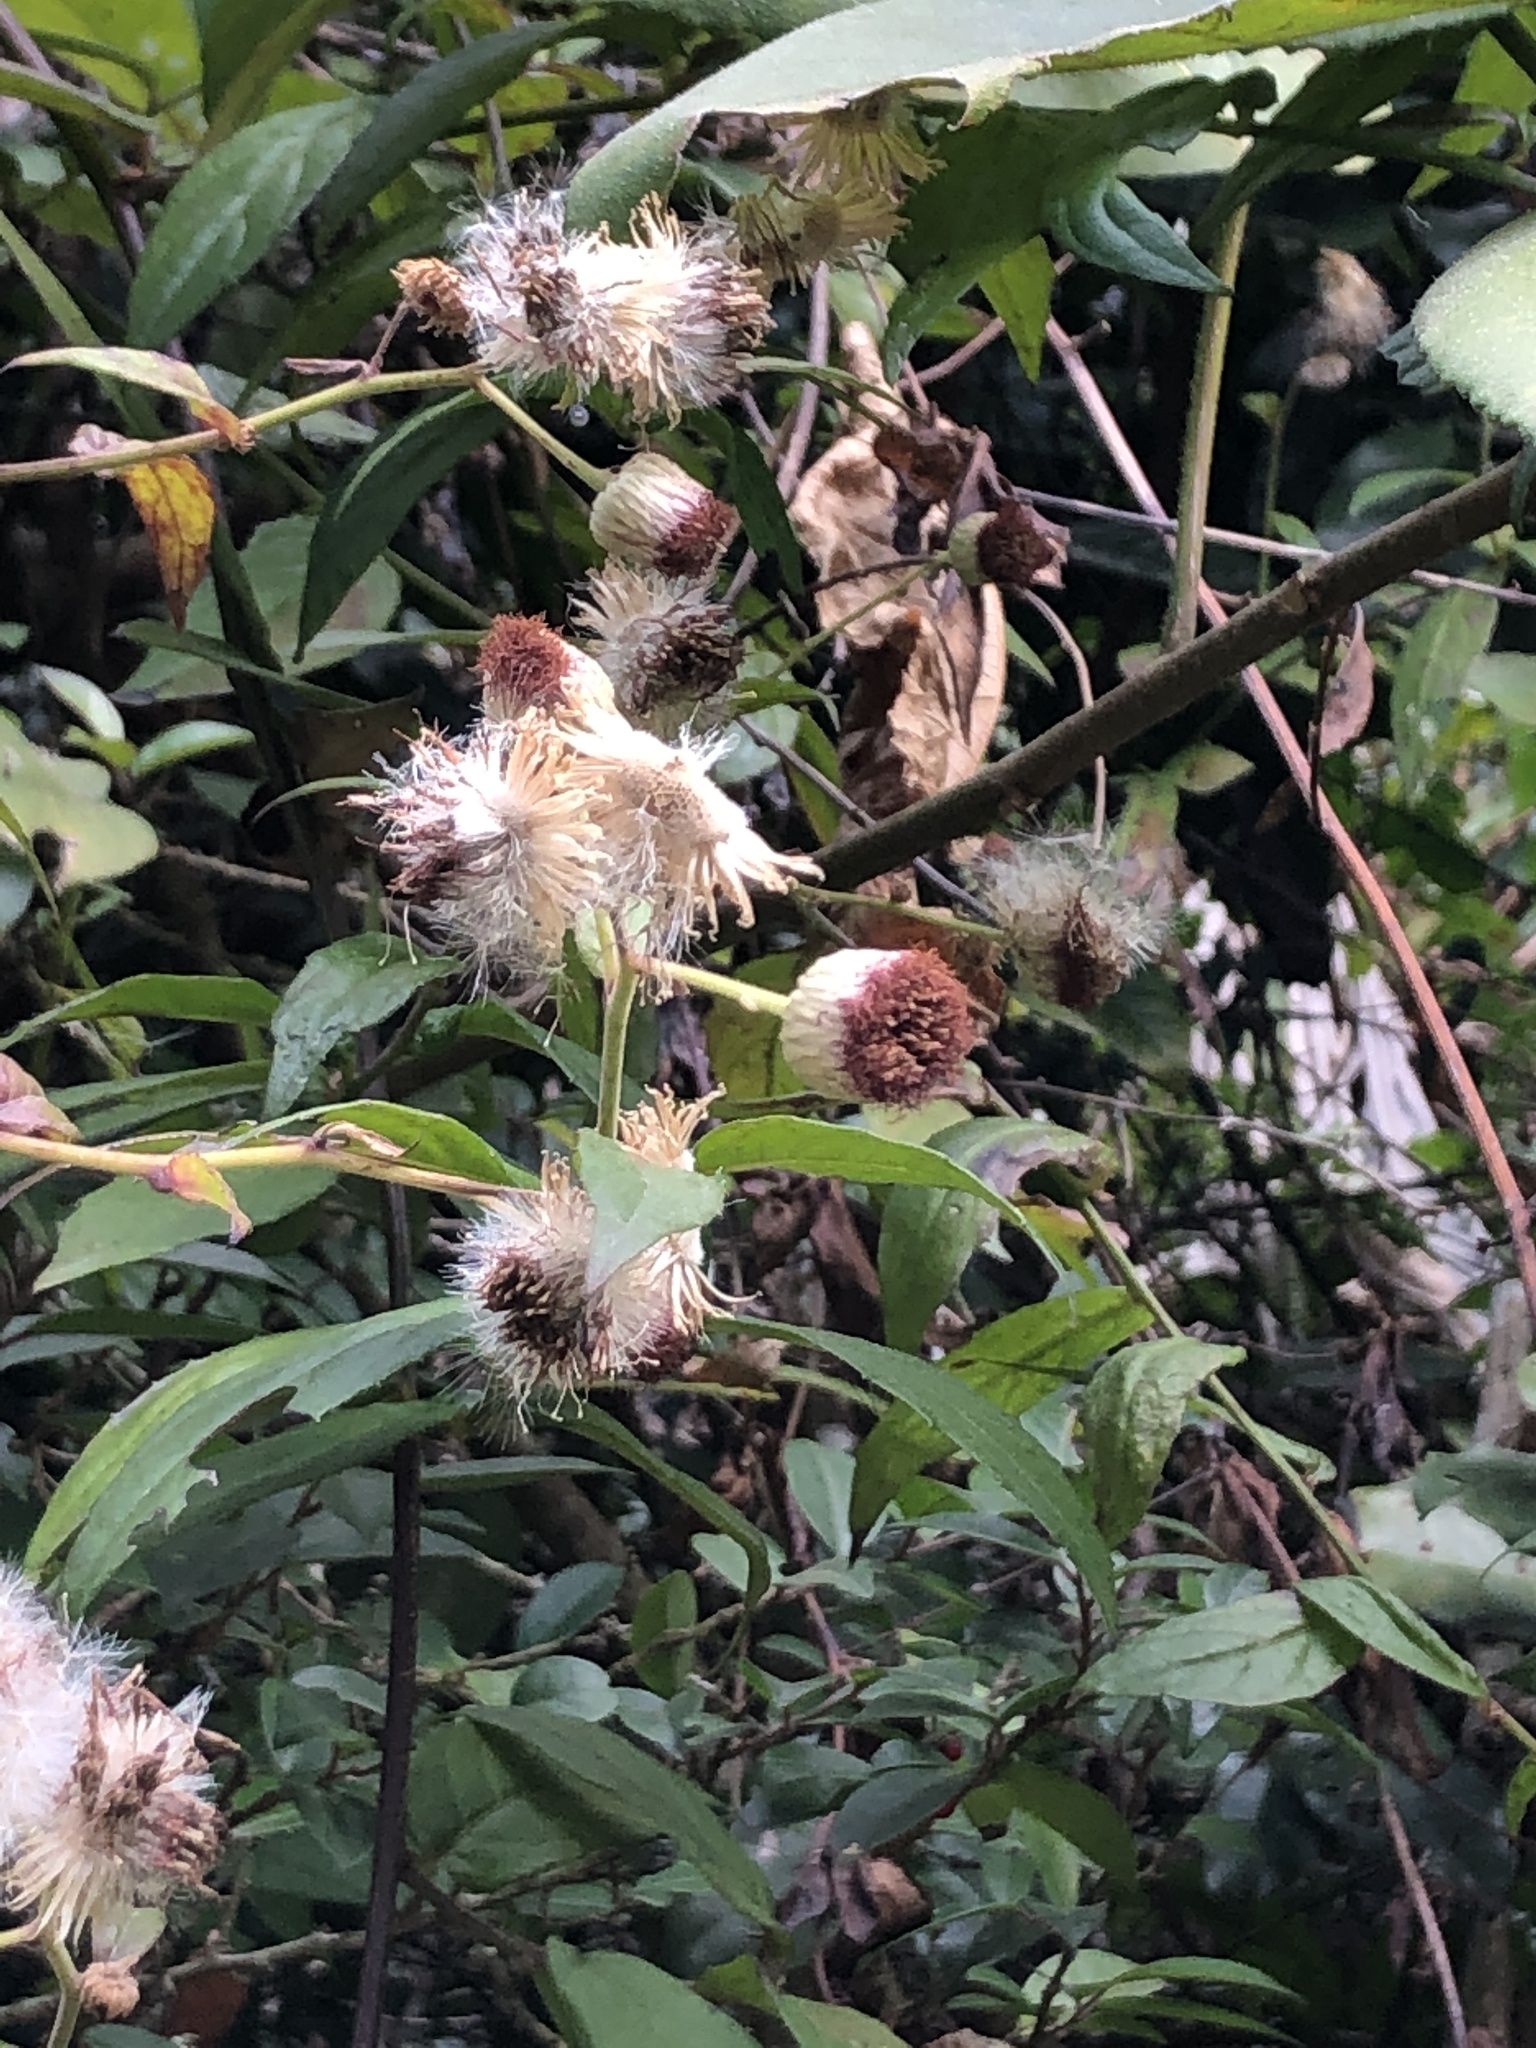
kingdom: Plantae
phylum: Tracheophyta
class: Magnoliopsida
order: Asterales
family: Asteraceae
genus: Blumea
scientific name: Blumea megacephala
